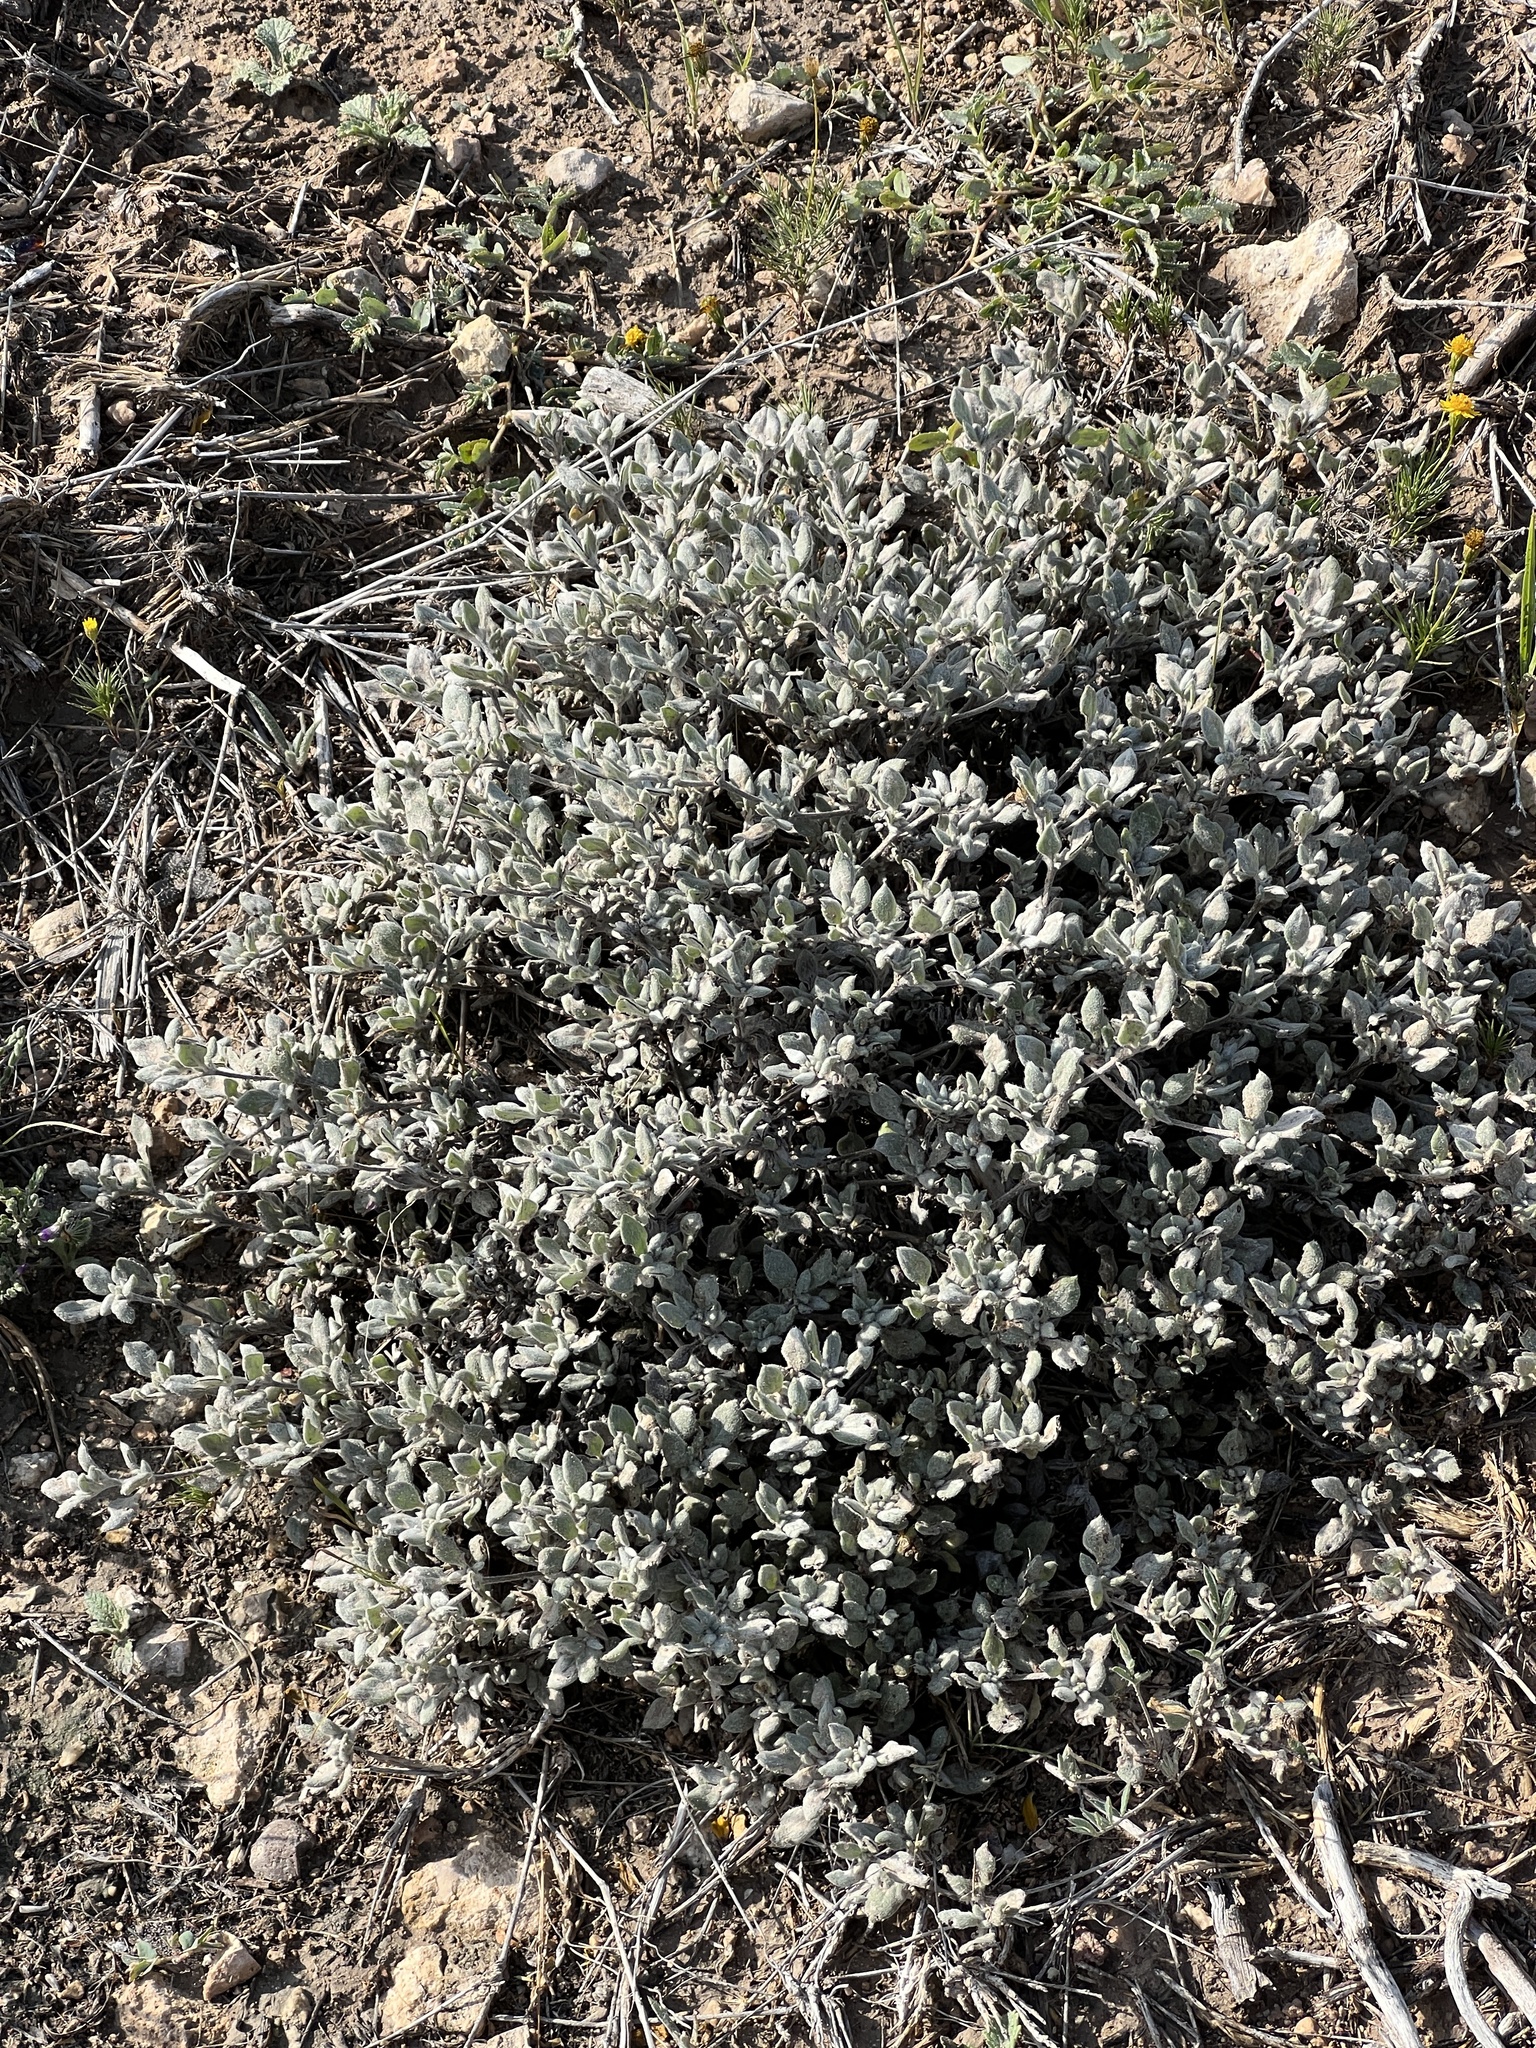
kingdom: Plantae
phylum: Tracheophyta
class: Magnoliopsida
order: Boraginales
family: Ehretiaceae
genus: Tiquilia
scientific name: Tiquilia canescens
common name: Hairy tiquilia
